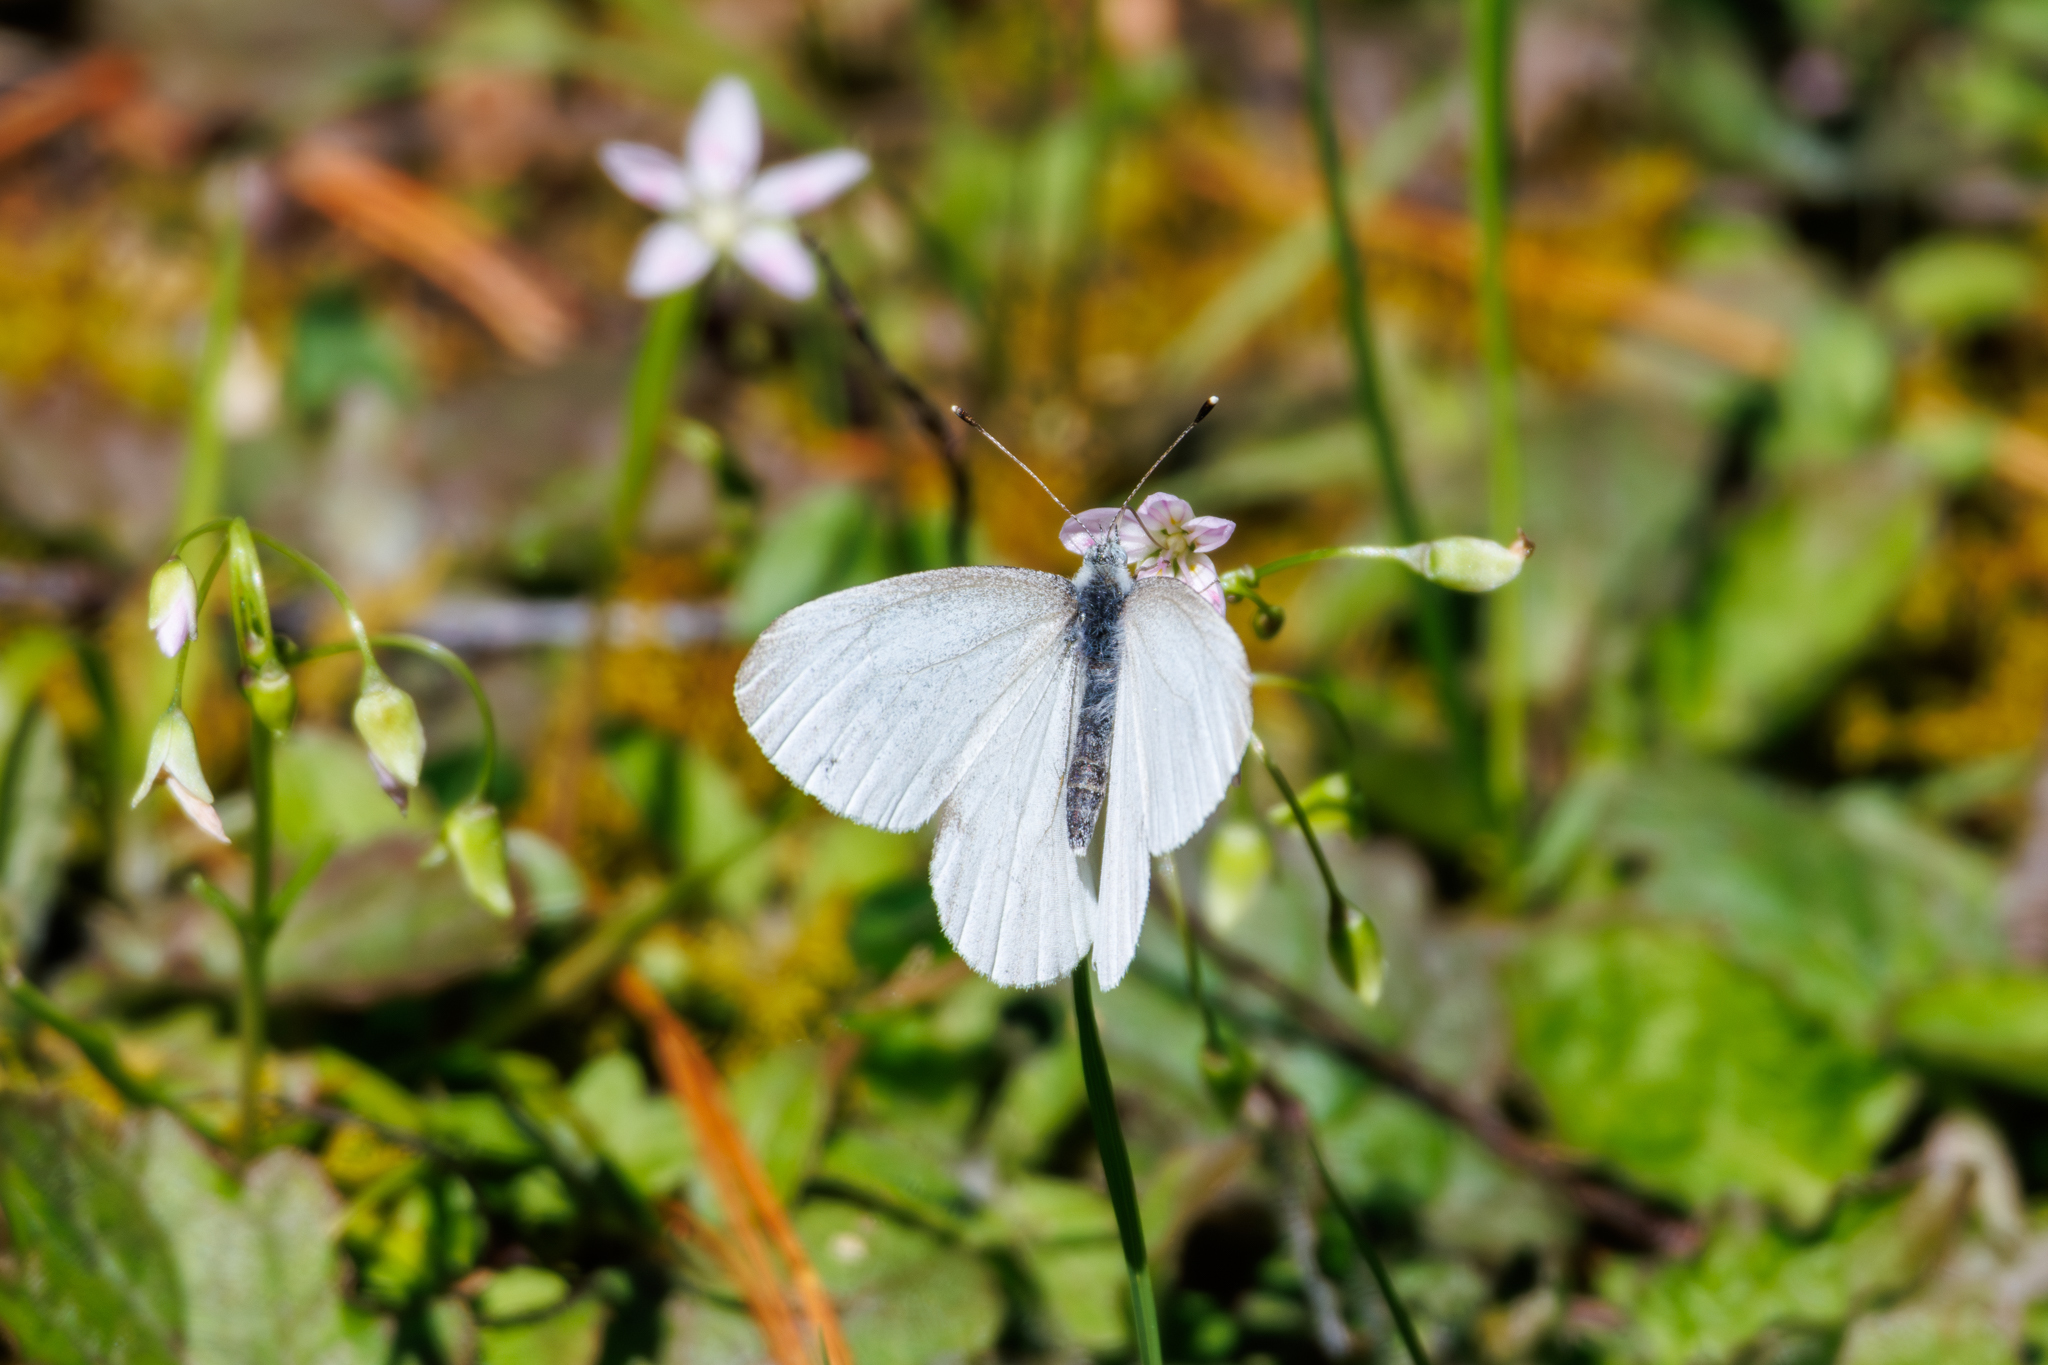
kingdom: Animalia
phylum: Arthropoda
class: Insecta
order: Lepidoptera
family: Pieridae
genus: Pieris
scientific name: Pieris virginiensis
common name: West virginia white
